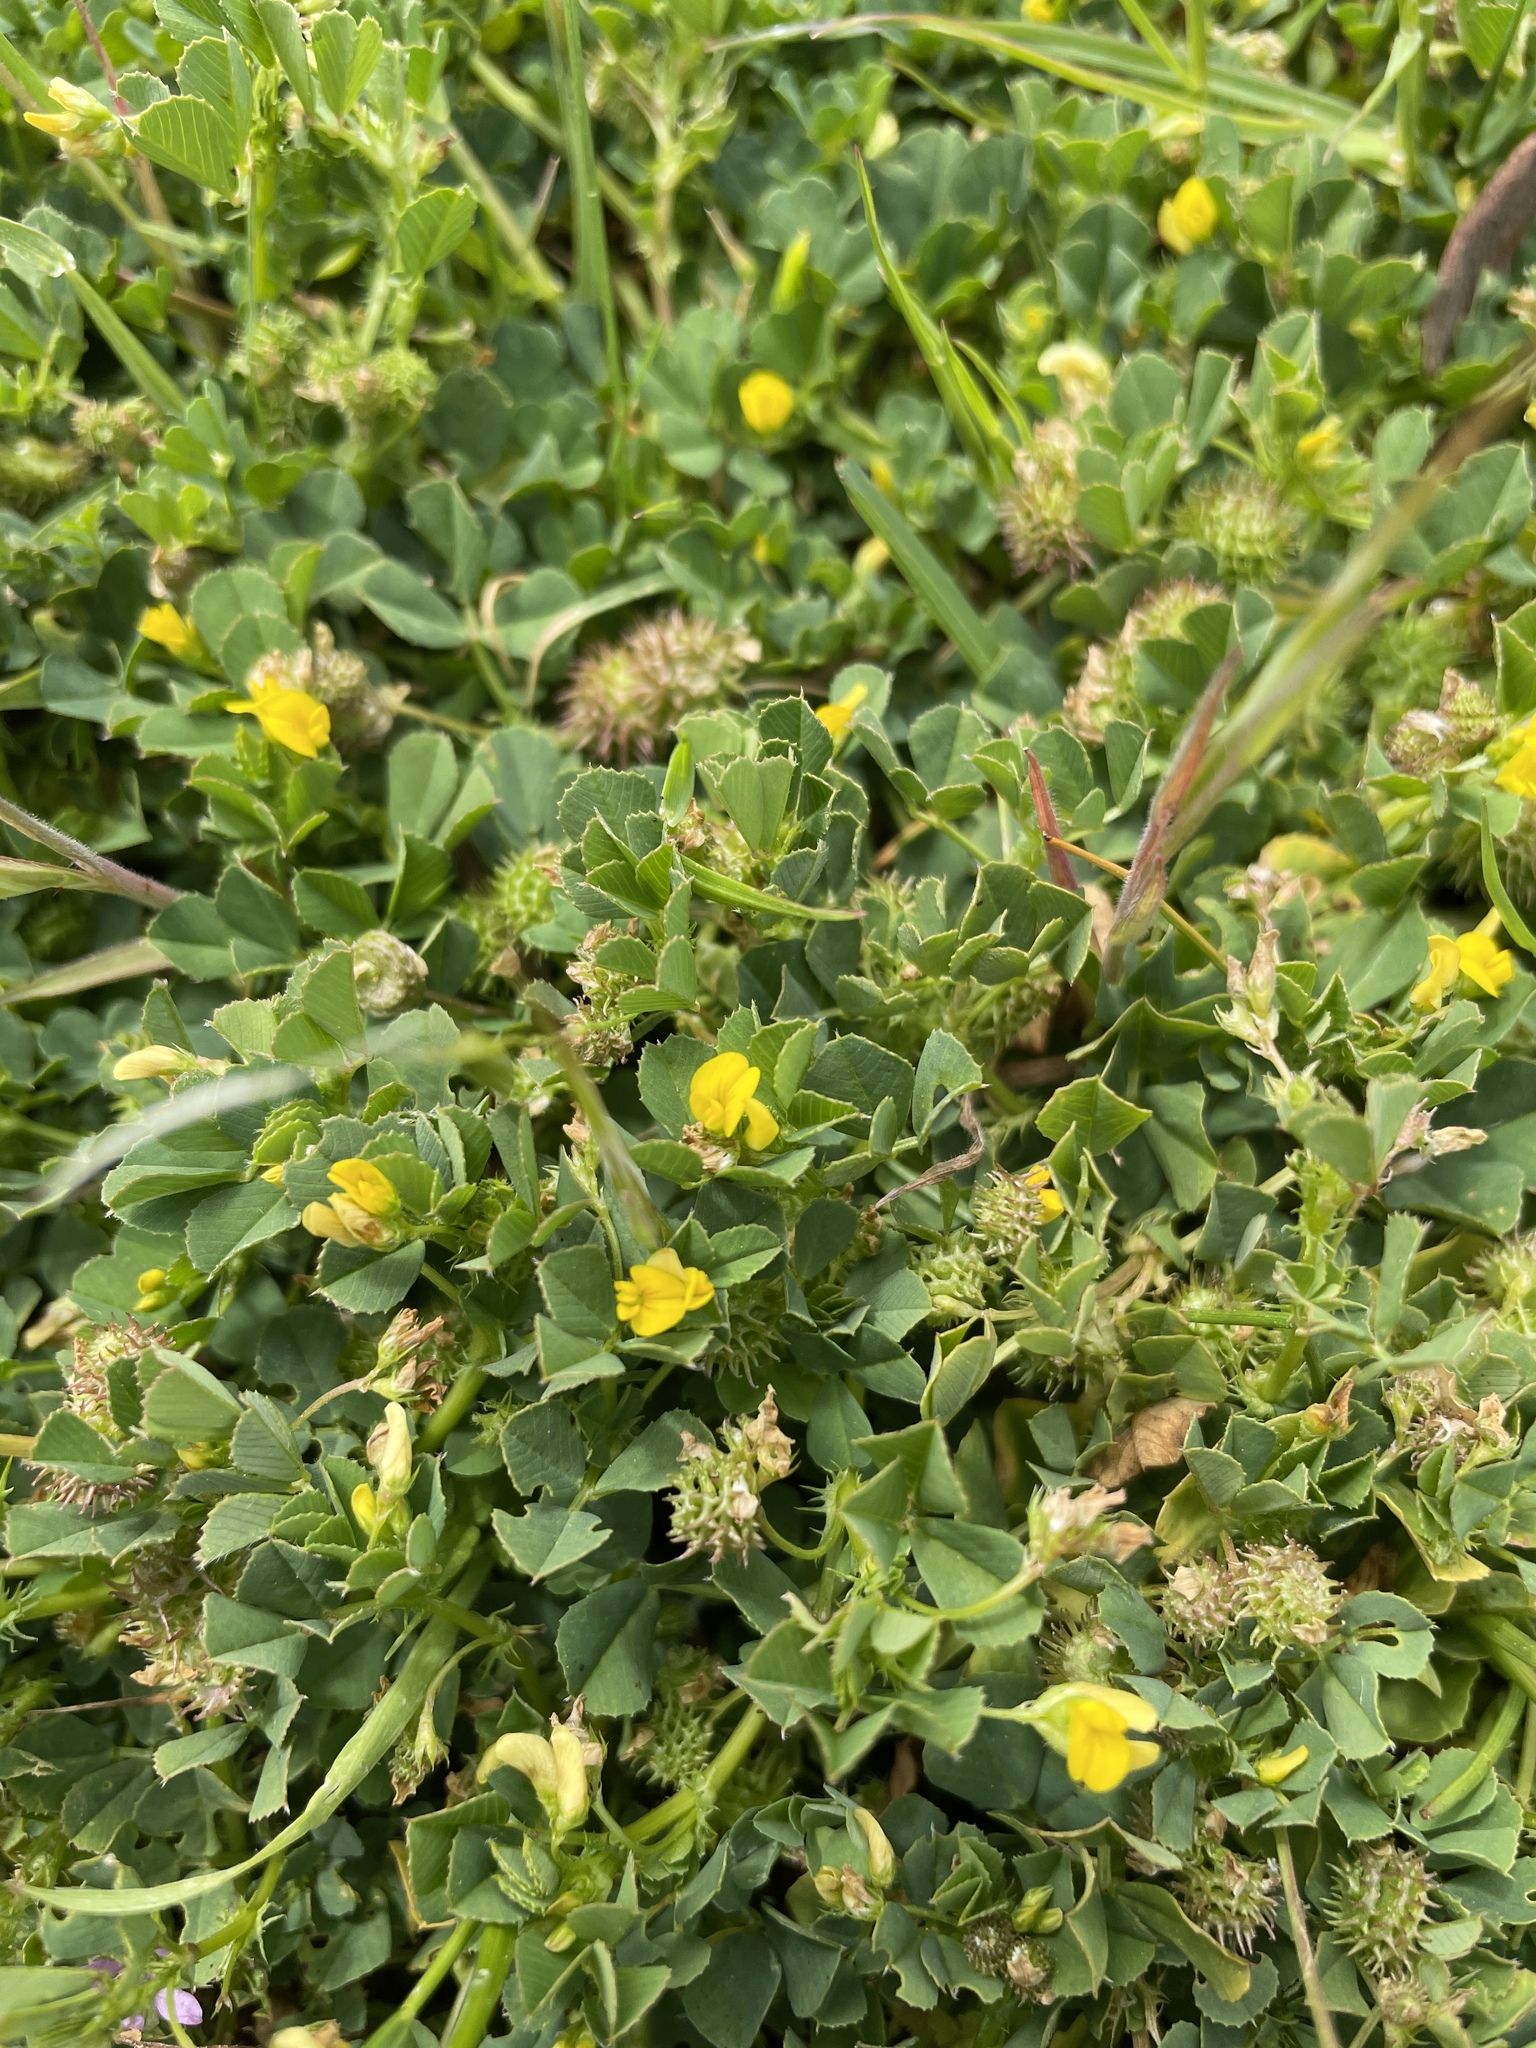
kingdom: Plantae
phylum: Tracheophyta
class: Magnoliopsida
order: Fabales
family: Fabaceae
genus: Medicago
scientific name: Medicago polymorpha
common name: Burclover
